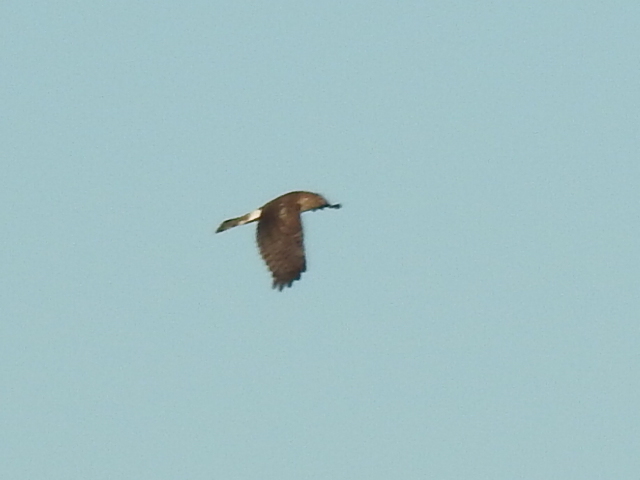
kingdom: Animalia
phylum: Chordata
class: Aves
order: Accipitriformes
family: Accipitridae
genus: Circus
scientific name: Circus cyaneus
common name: Hen harrier
